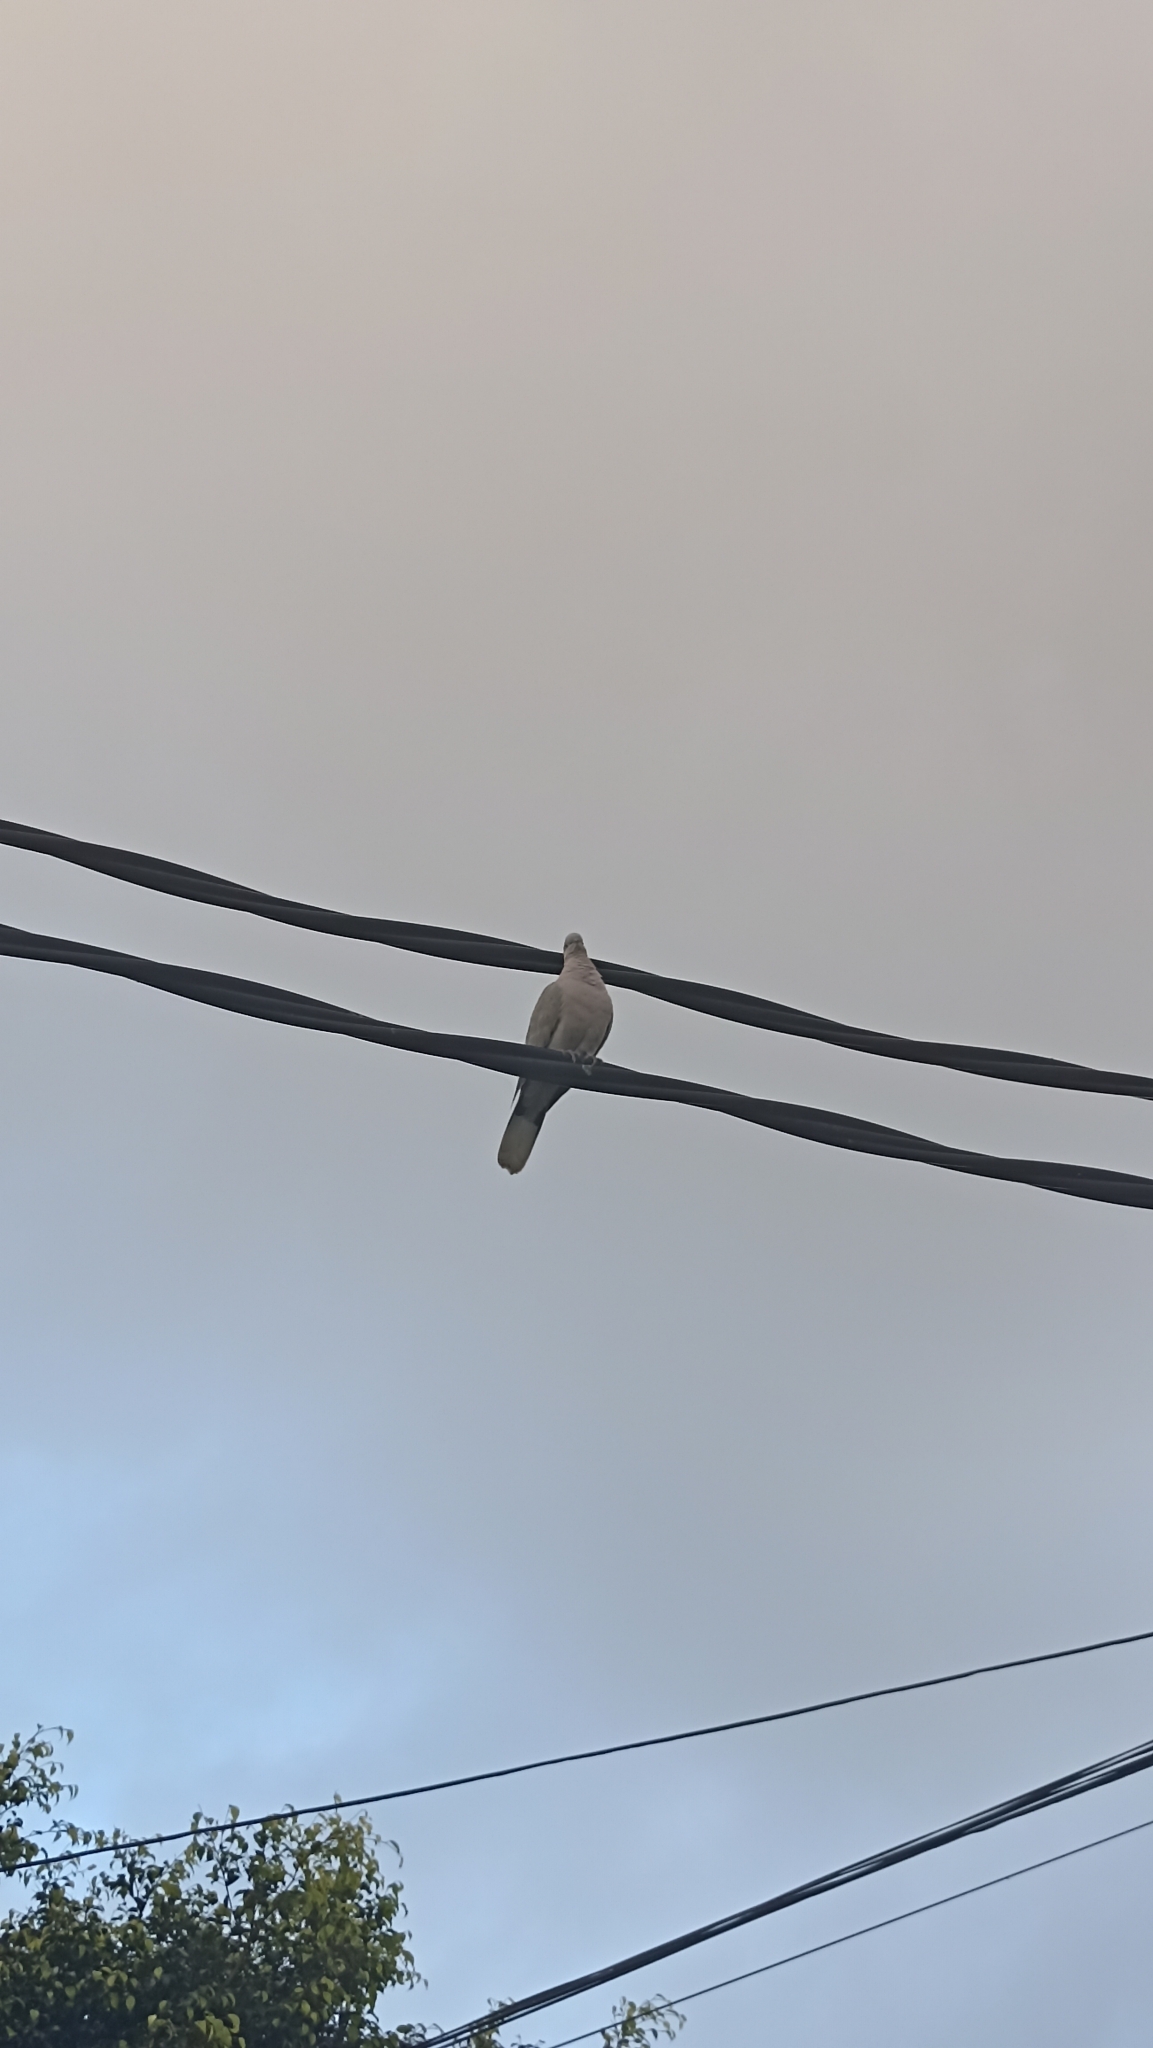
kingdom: Animalia
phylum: Chordata
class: Aves
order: Columbiformes
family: Columbidae
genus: Streptopelia
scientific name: Streptopelia decaocto
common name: Eurasian collared dove
